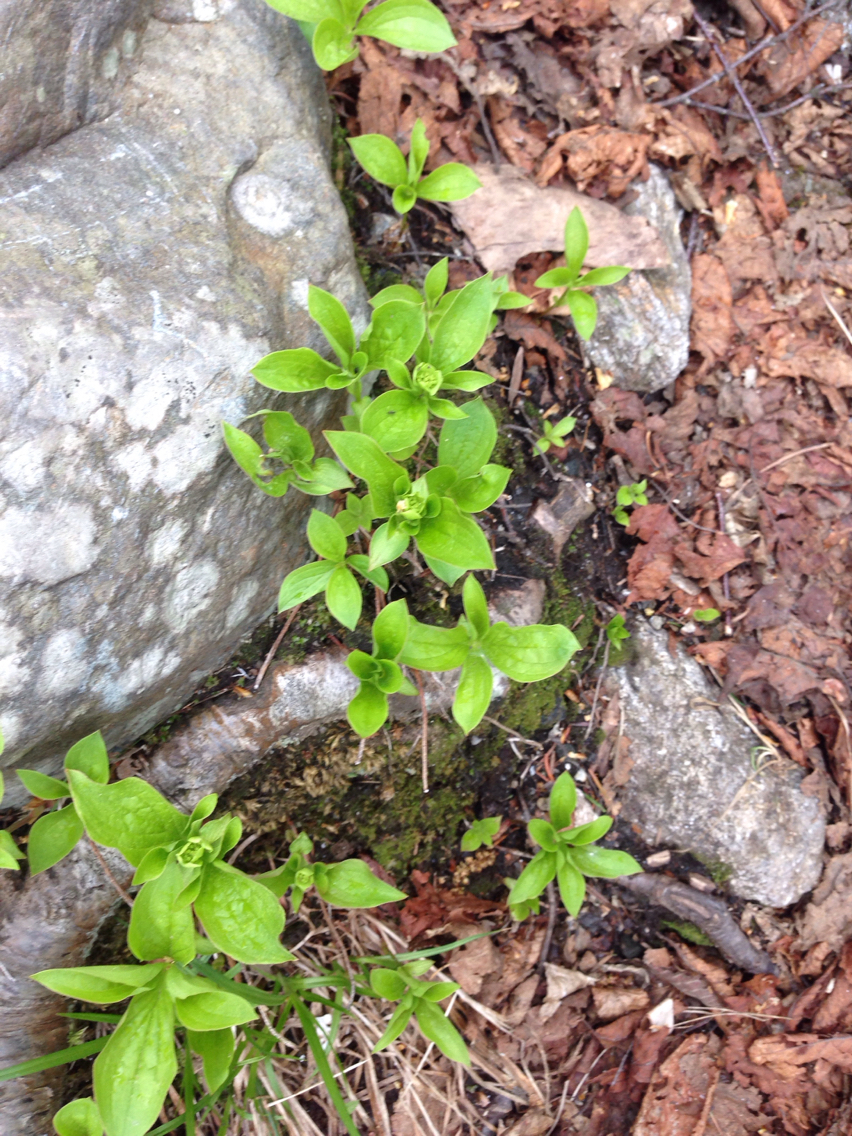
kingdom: Plantae
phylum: Tracheophyta
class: Magnoliopsida
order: Cornales
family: Cornaceae
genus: Cornus
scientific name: Cornus canadensis
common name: Creeping dogwood
